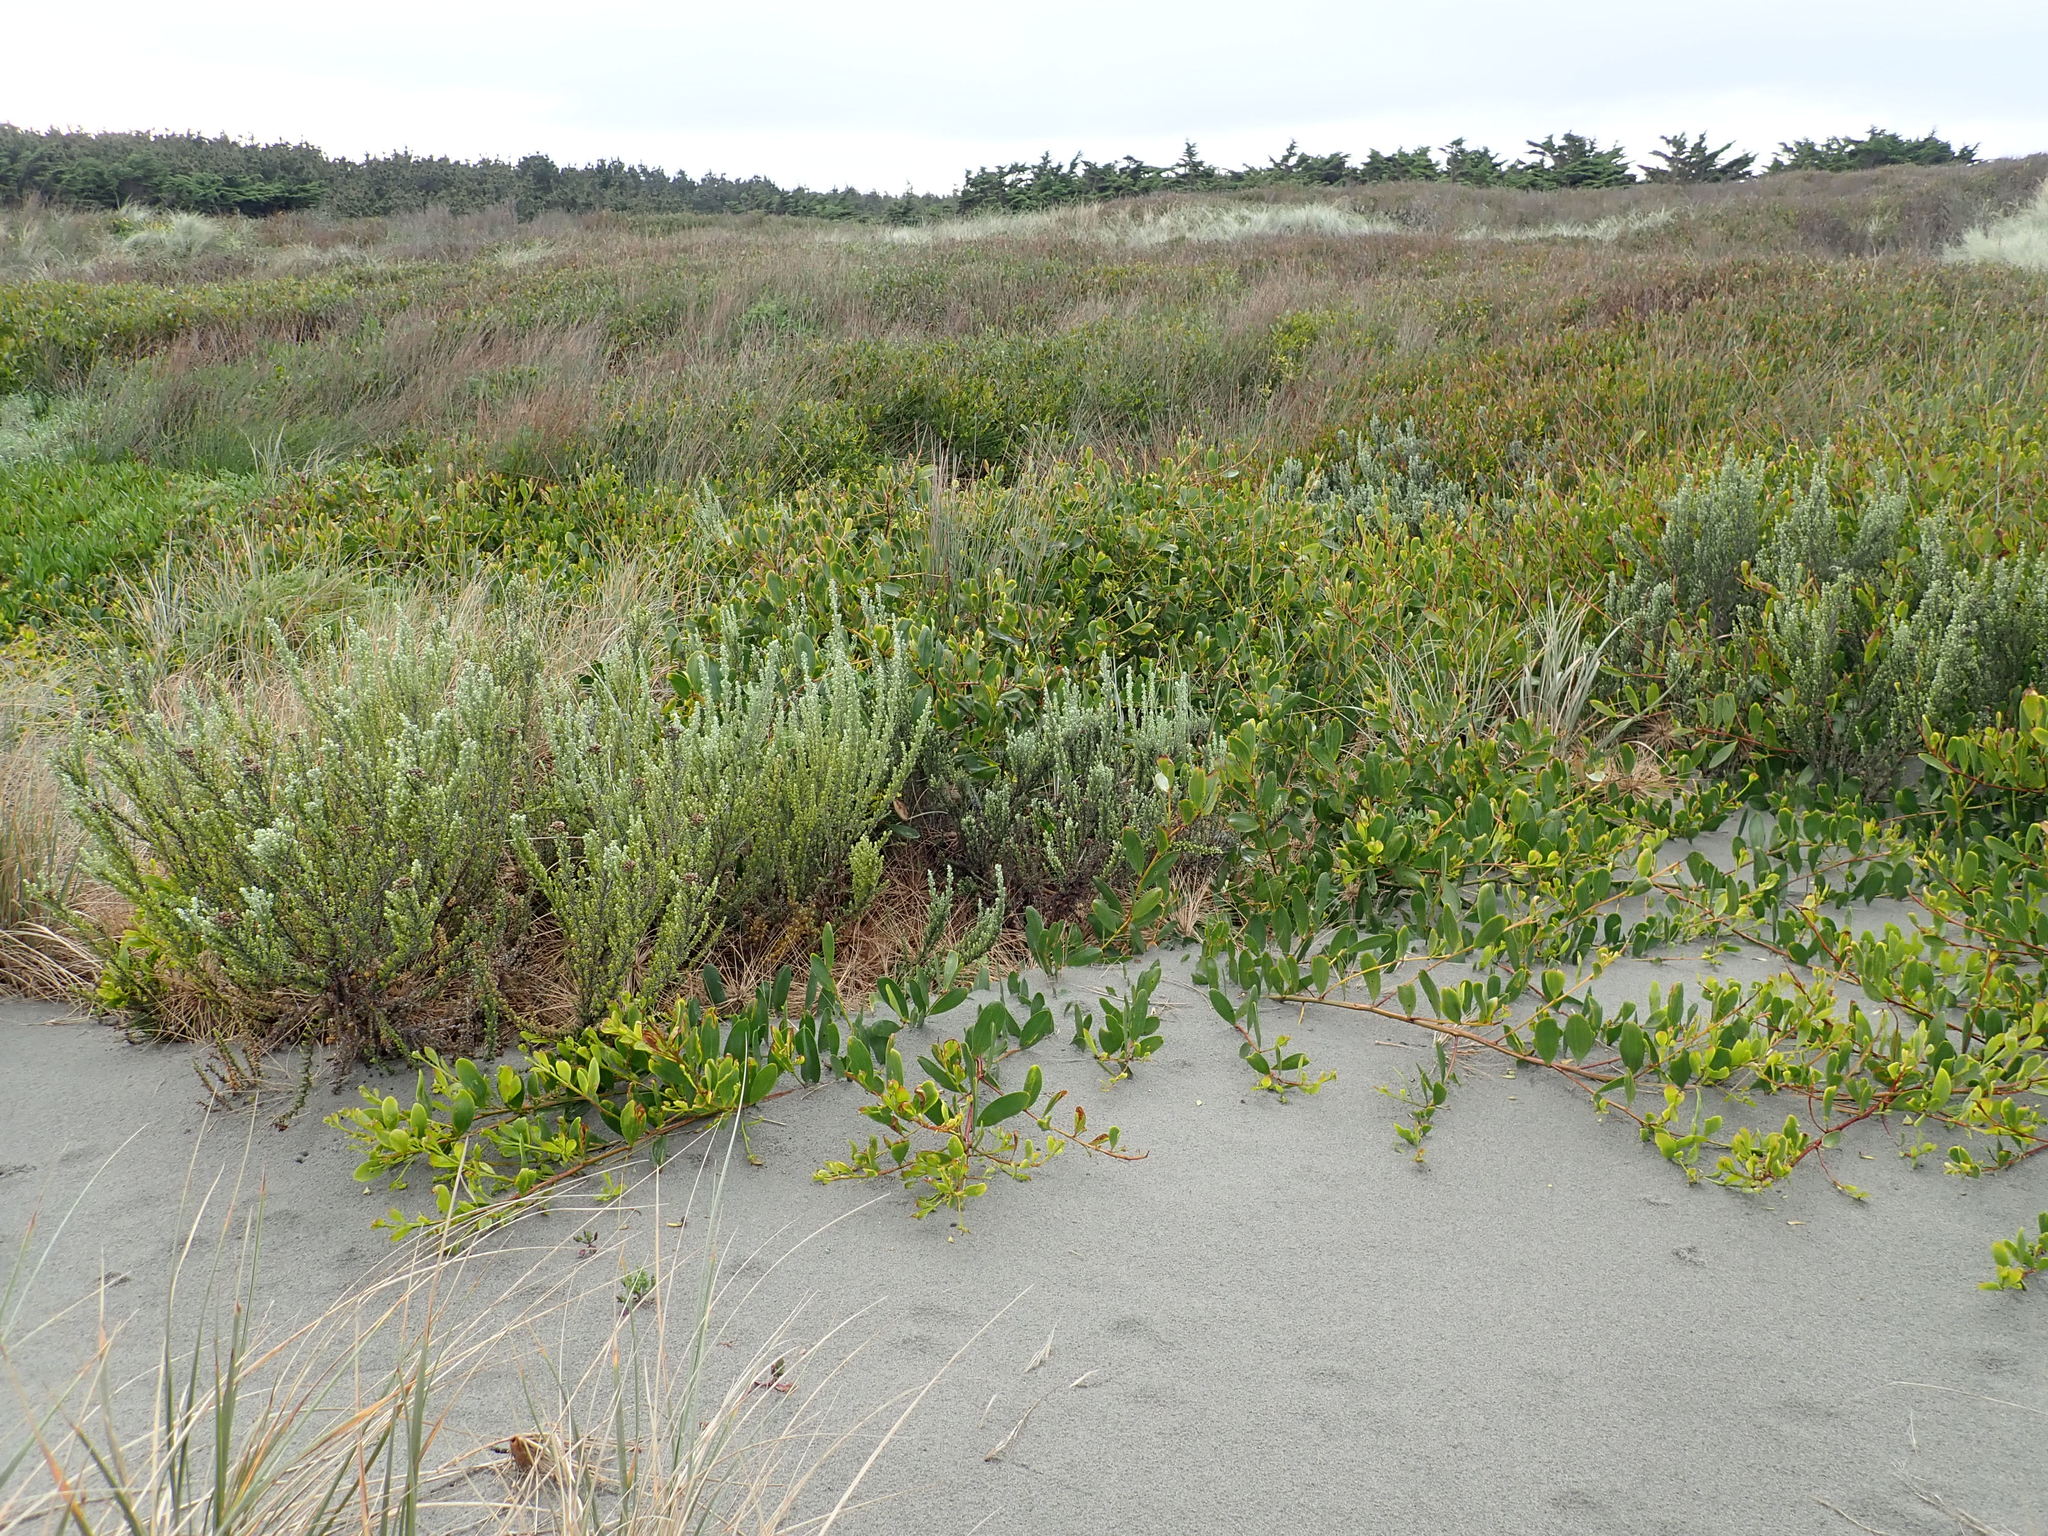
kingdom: Plantae
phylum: Tracheophyta
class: Magnoliopsida
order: Asterales
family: Asteraceae
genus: Ozothamnus
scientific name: Ozothamnus leptophyllus
